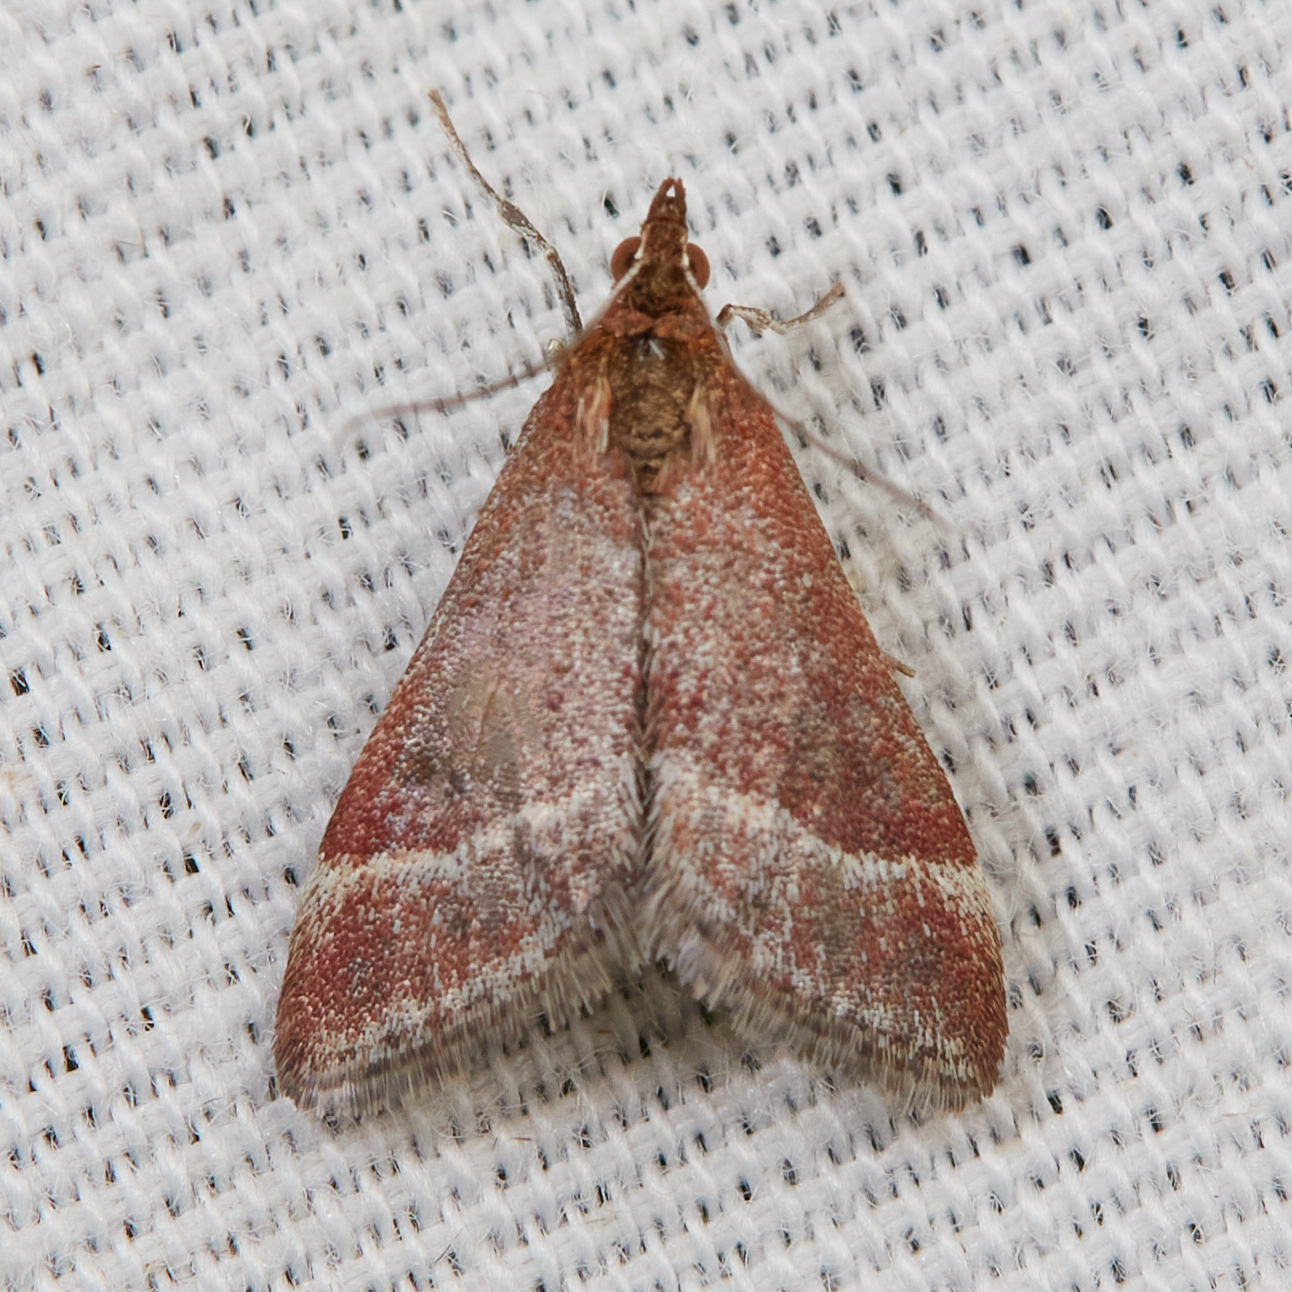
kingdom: Animalia
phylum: Arthropoda
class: Insecta
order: Lepidoptera
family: Crambidae
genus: Pyrausta
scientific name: Pyrausta lethalis
